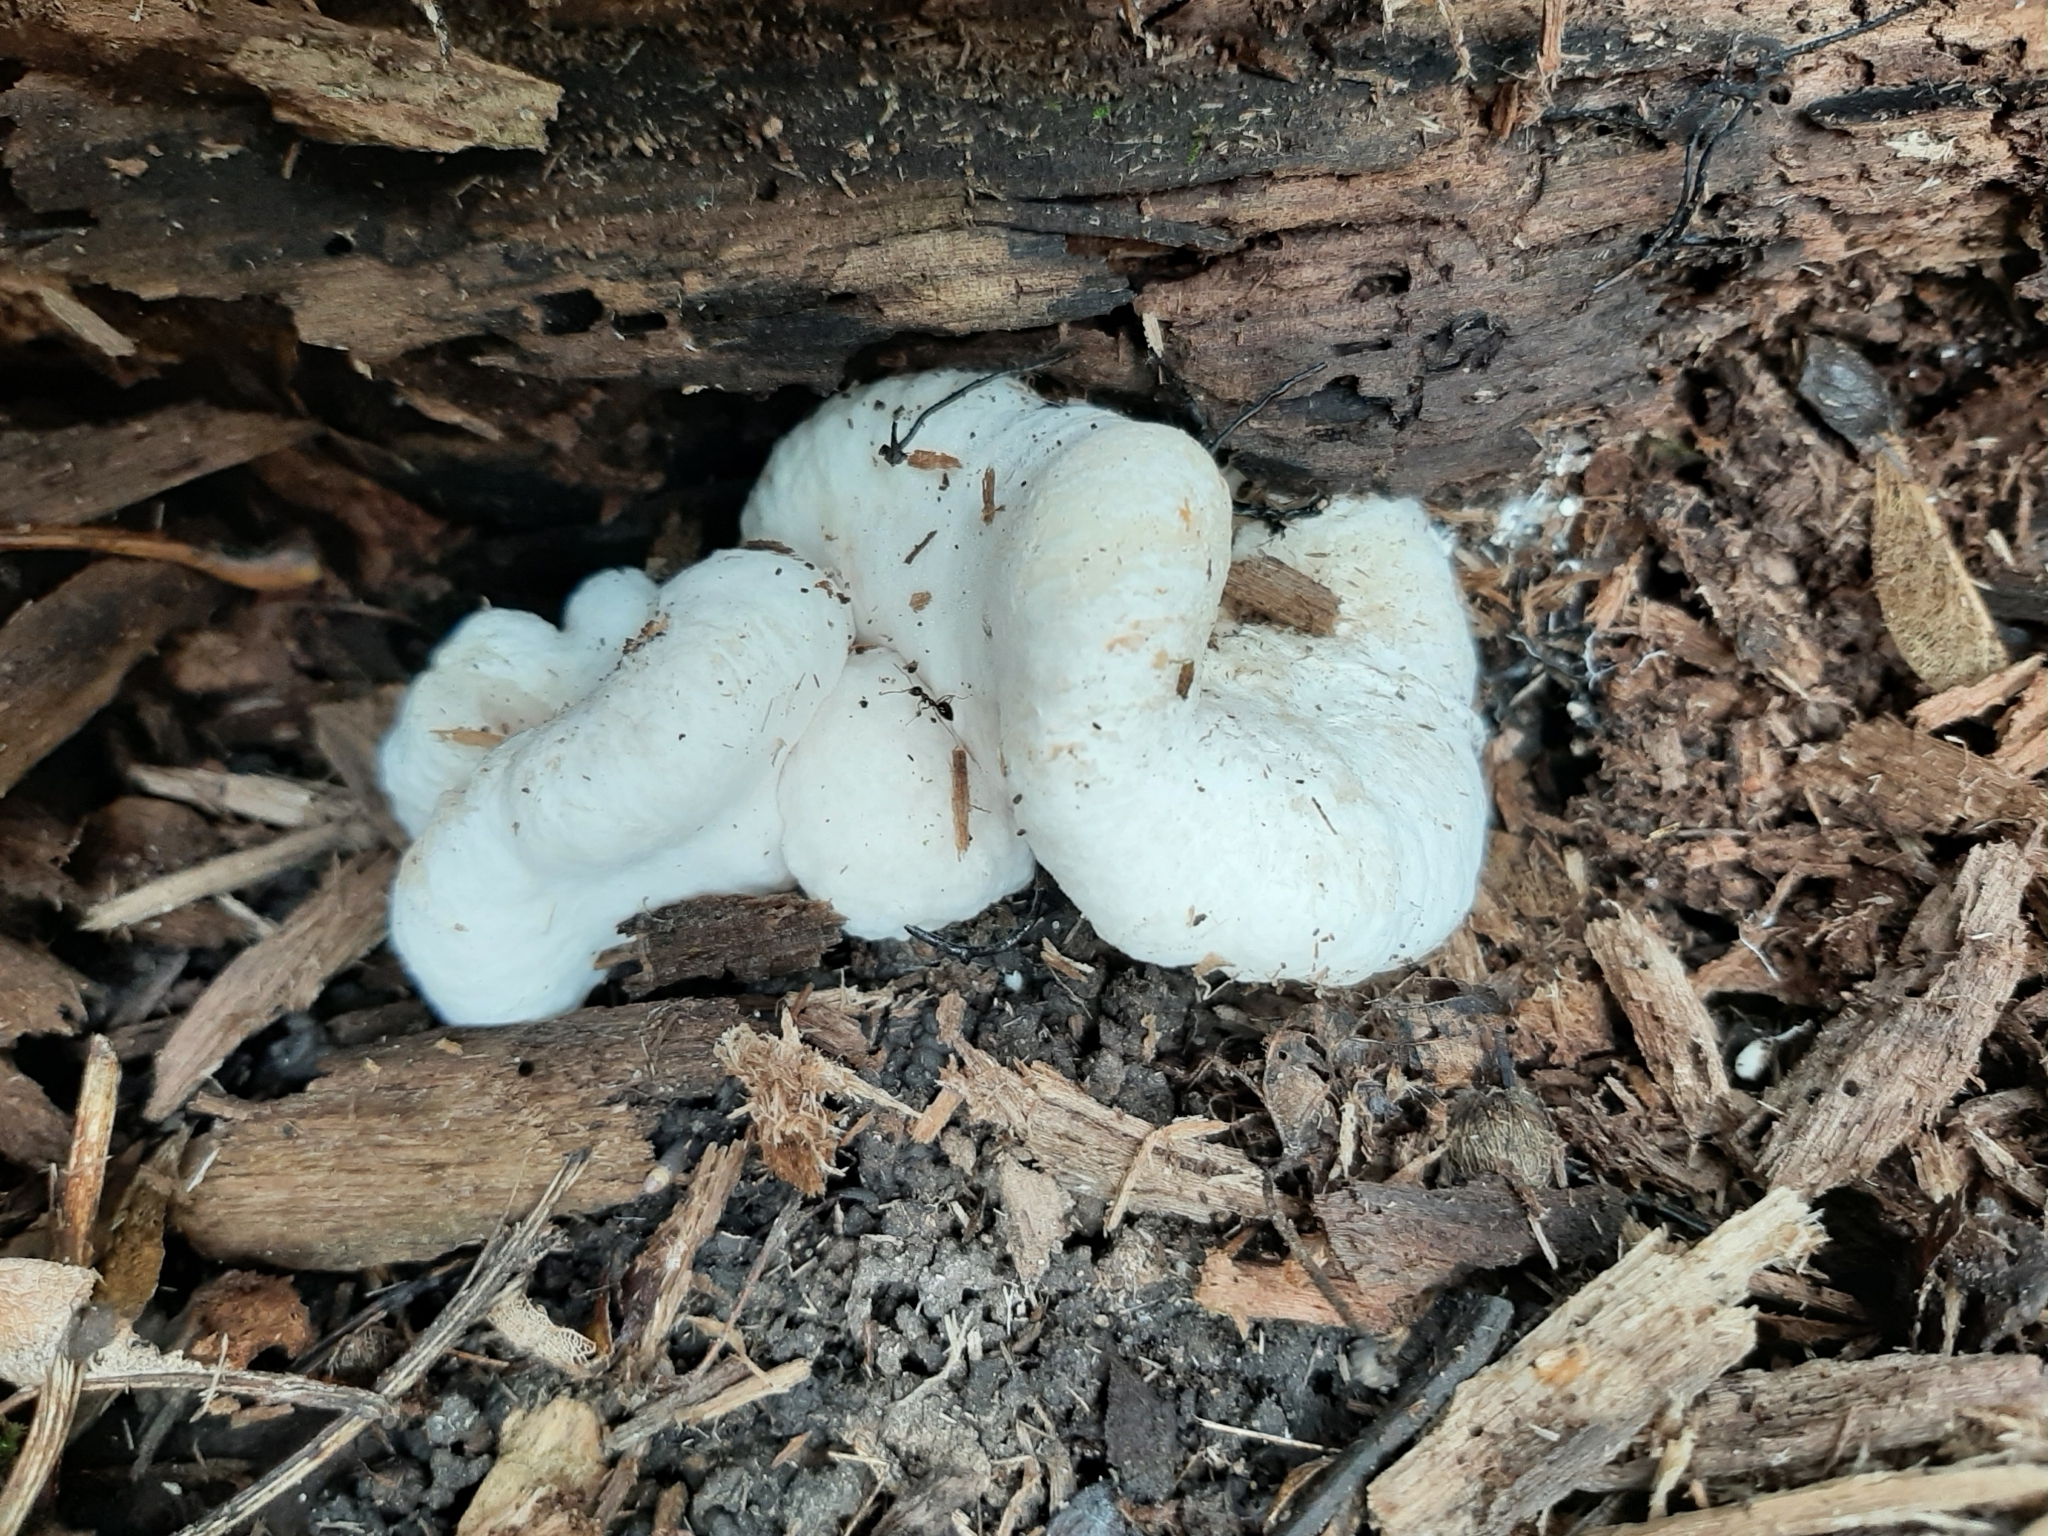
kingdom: Fungi
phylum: Basidiomycota
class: Agaricomycetes
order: Agaricales
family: Entolomataceae
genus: Entoloma
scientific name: Entoloma abortivum
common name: Aborted entoloma
